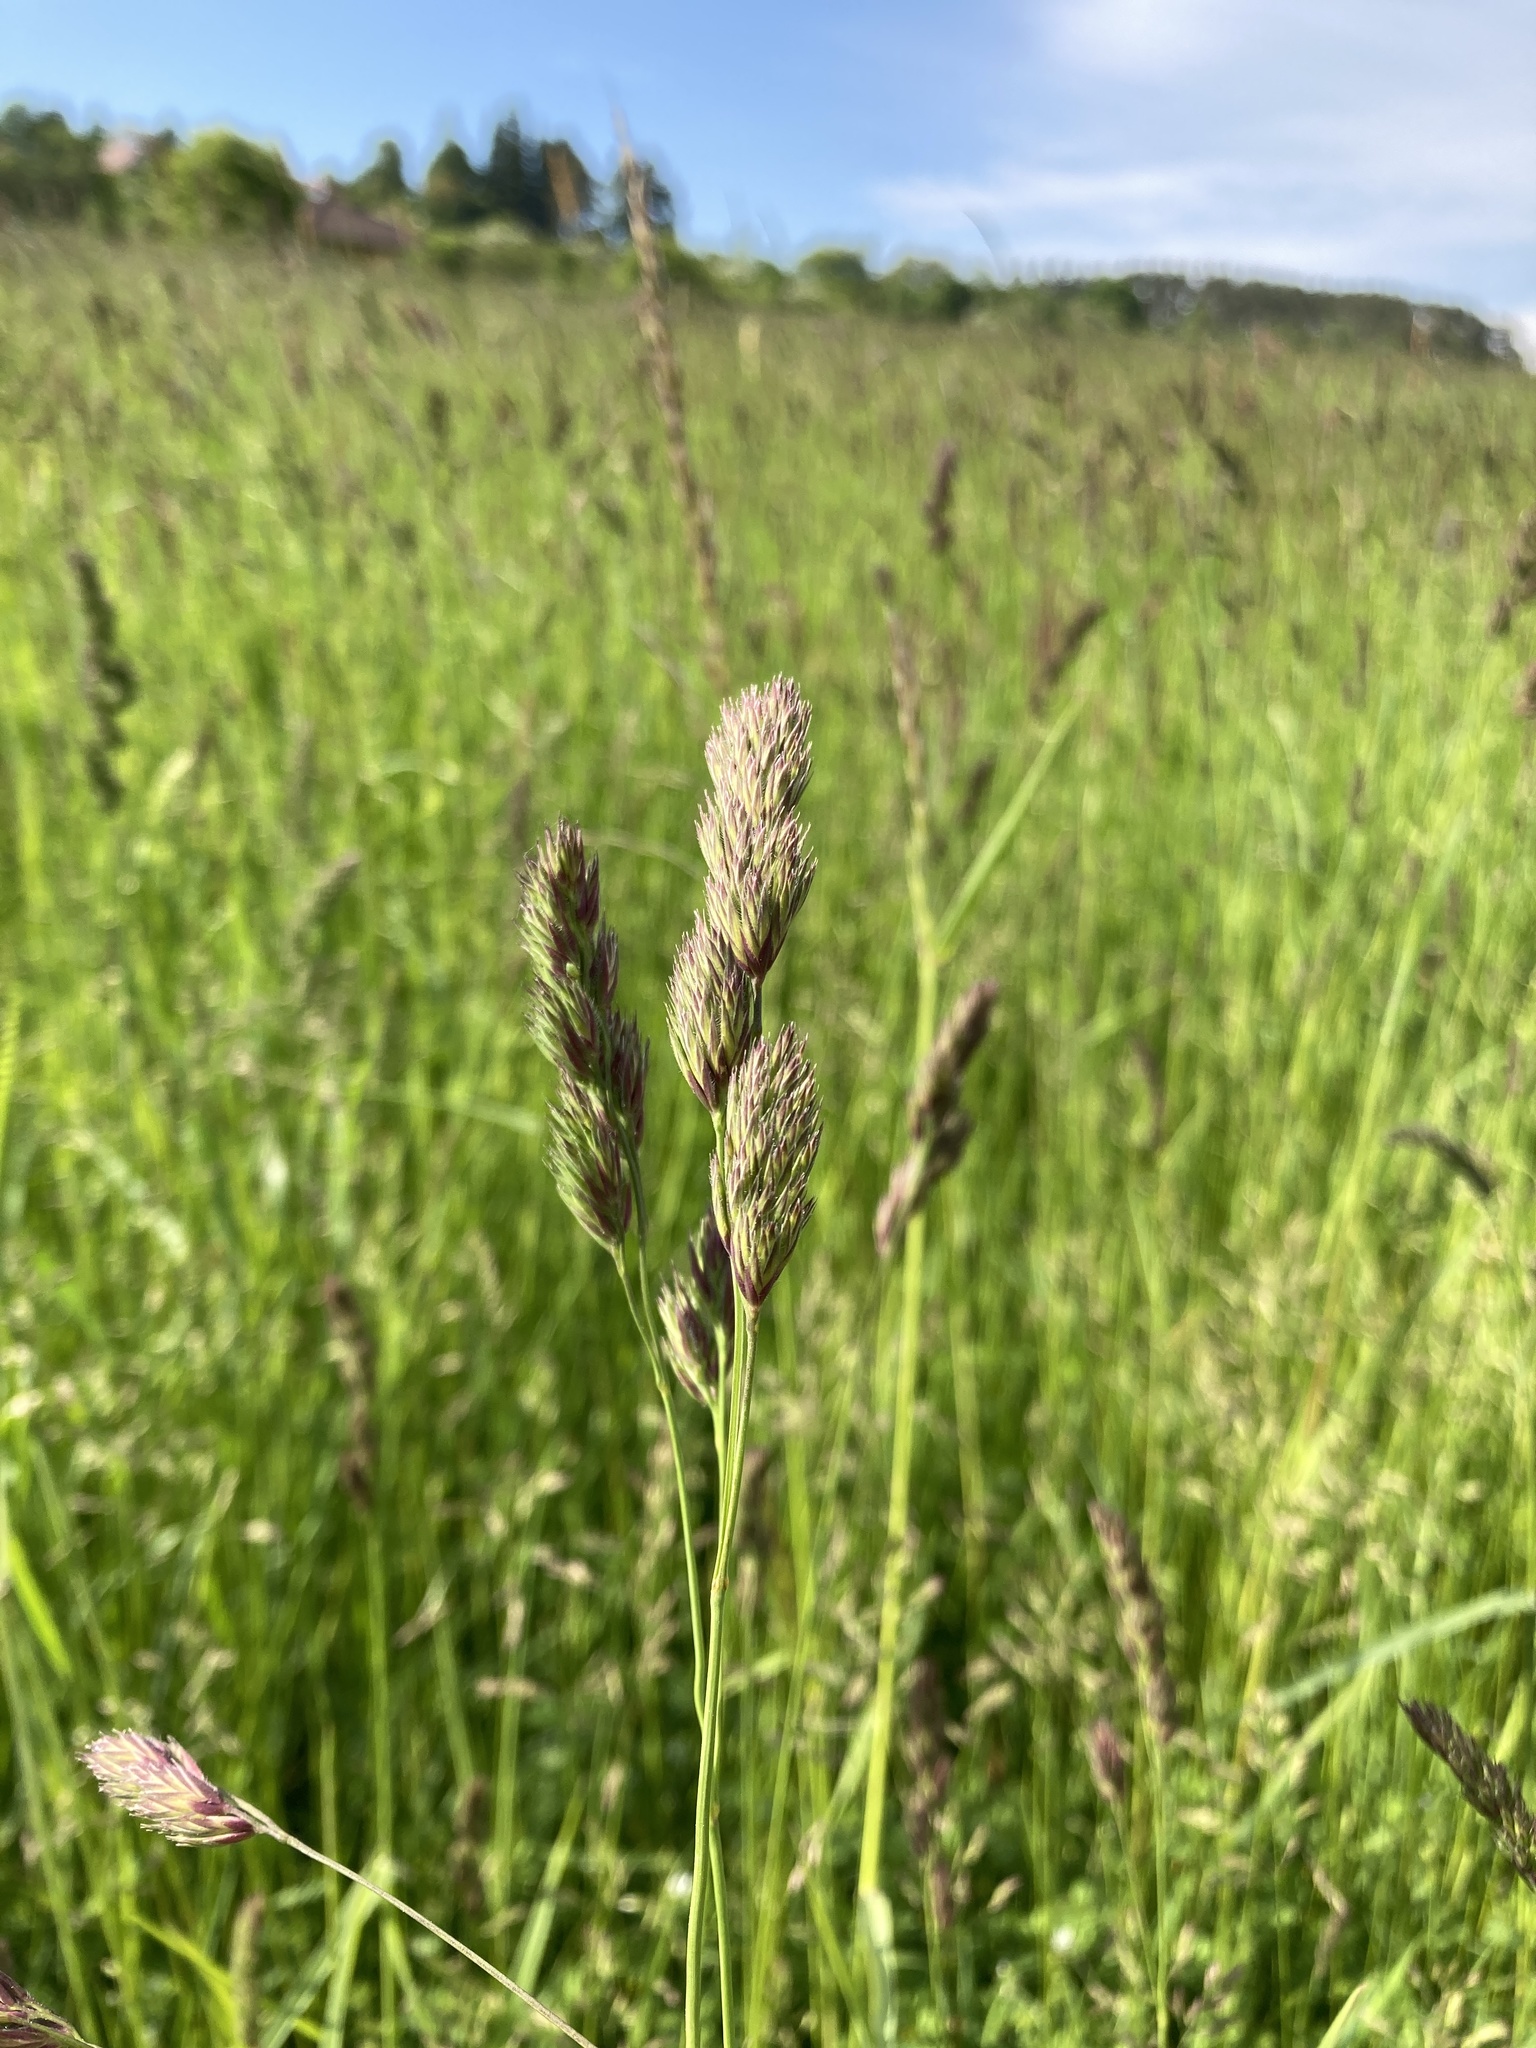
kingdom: Plantae
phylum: Tracheophyta
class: Liliopsida
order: Poales
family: Poaceae
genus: Dactylis
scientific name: Dactylis glomerata
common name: Orchardgrass
